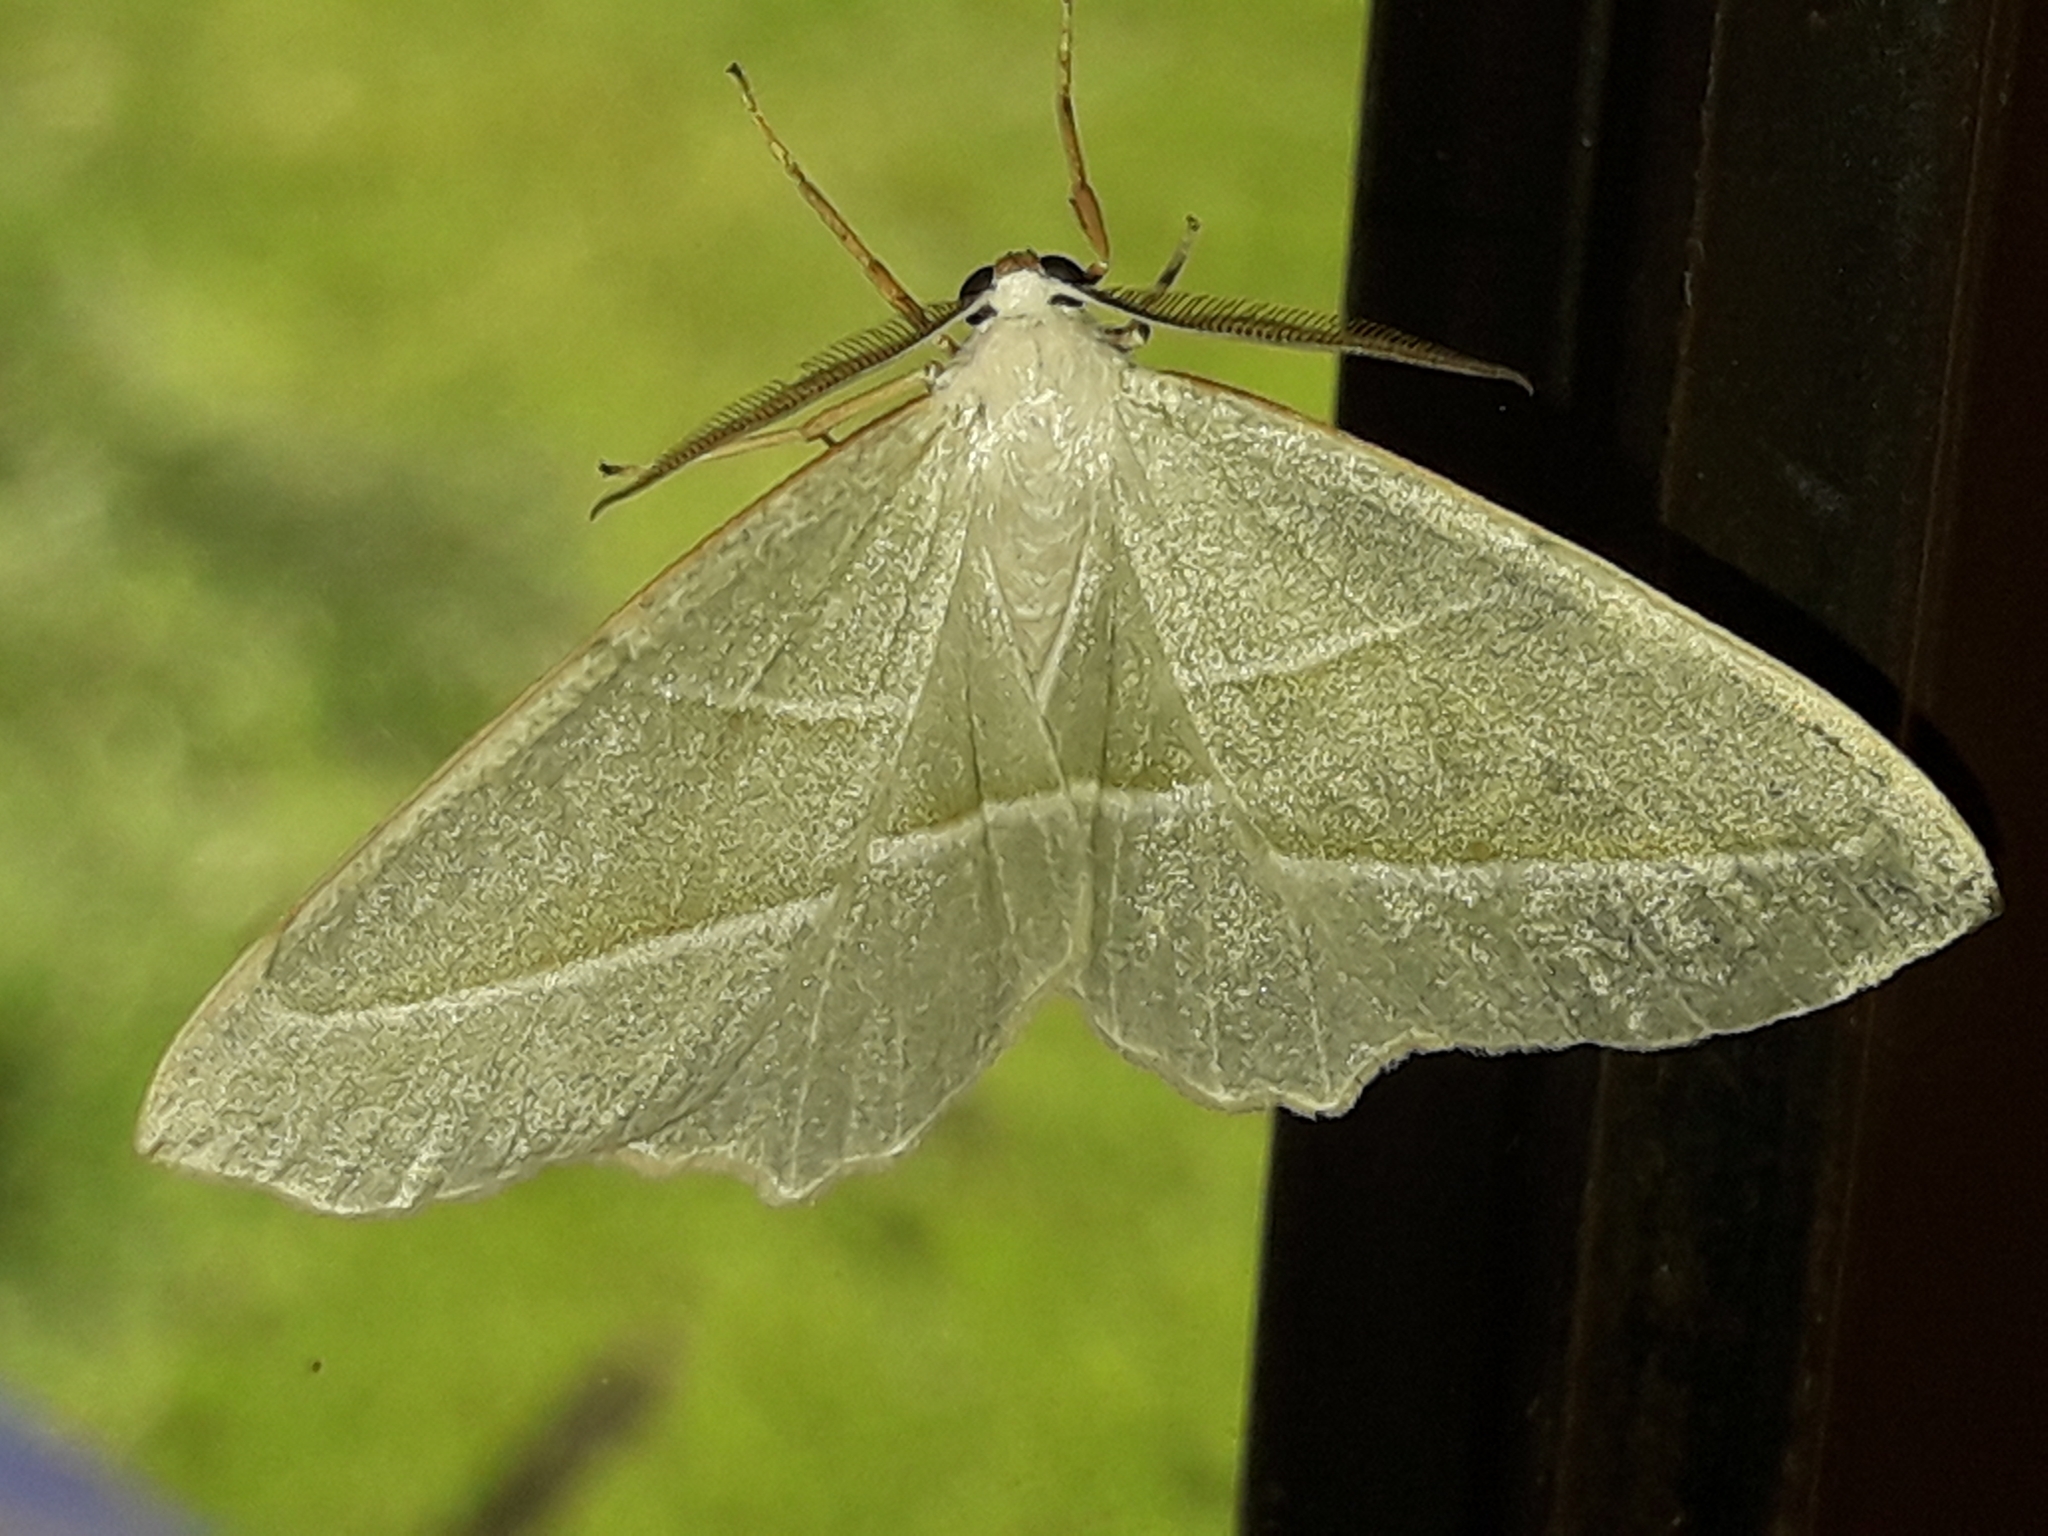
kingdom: Animalia
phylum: Arthropoda
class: Insecta
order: Lepidoptera
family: Geometridae
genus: Campaea
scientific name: Campaea margaritaria
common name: Light emerald
